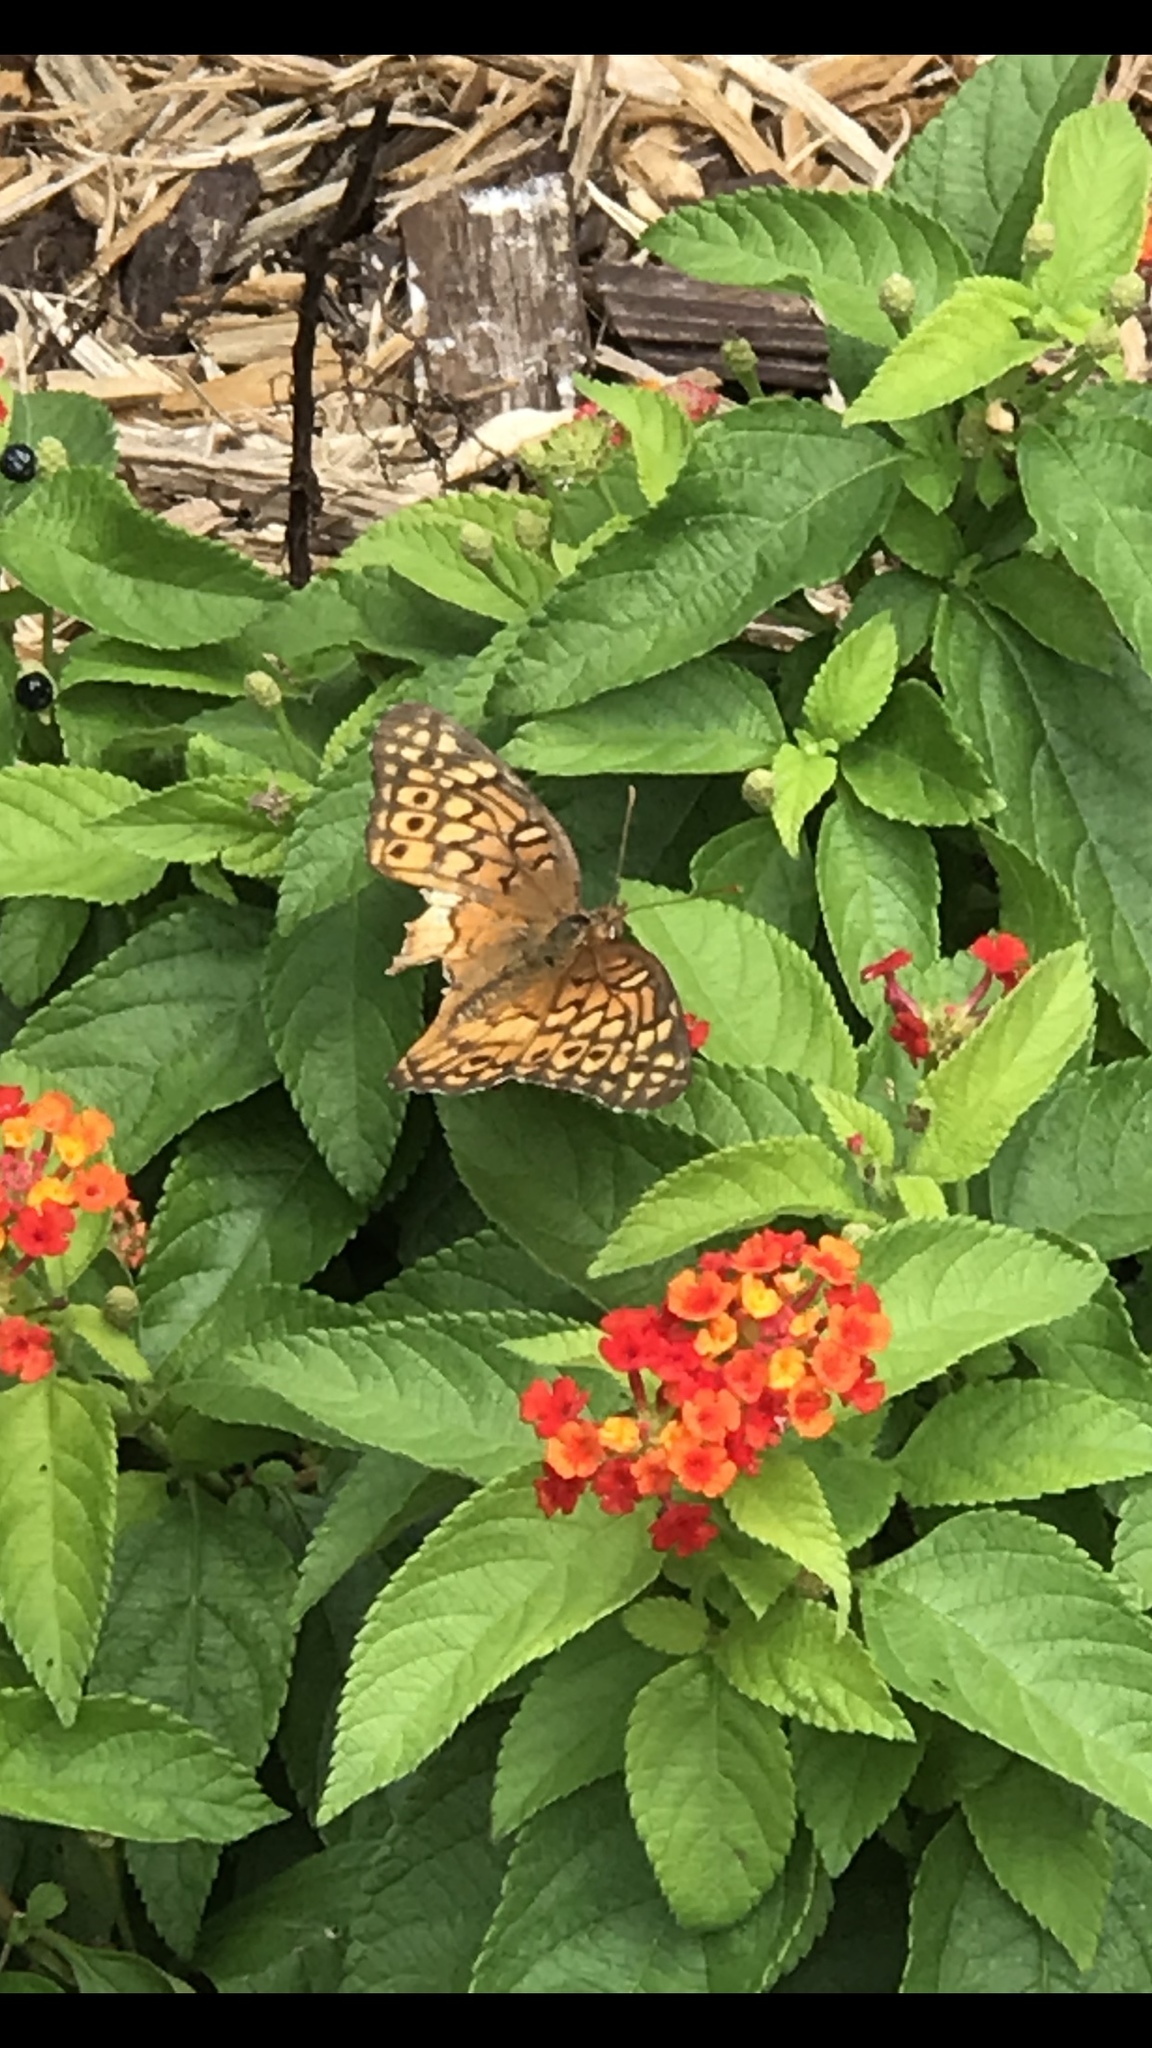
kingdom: Animalia
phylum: Arthropoda
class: Insecta
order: Lepidoptera
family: Nymphalidae
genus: Euptoieta
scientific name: Euptoieta claudia
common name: Variegated fritillary
